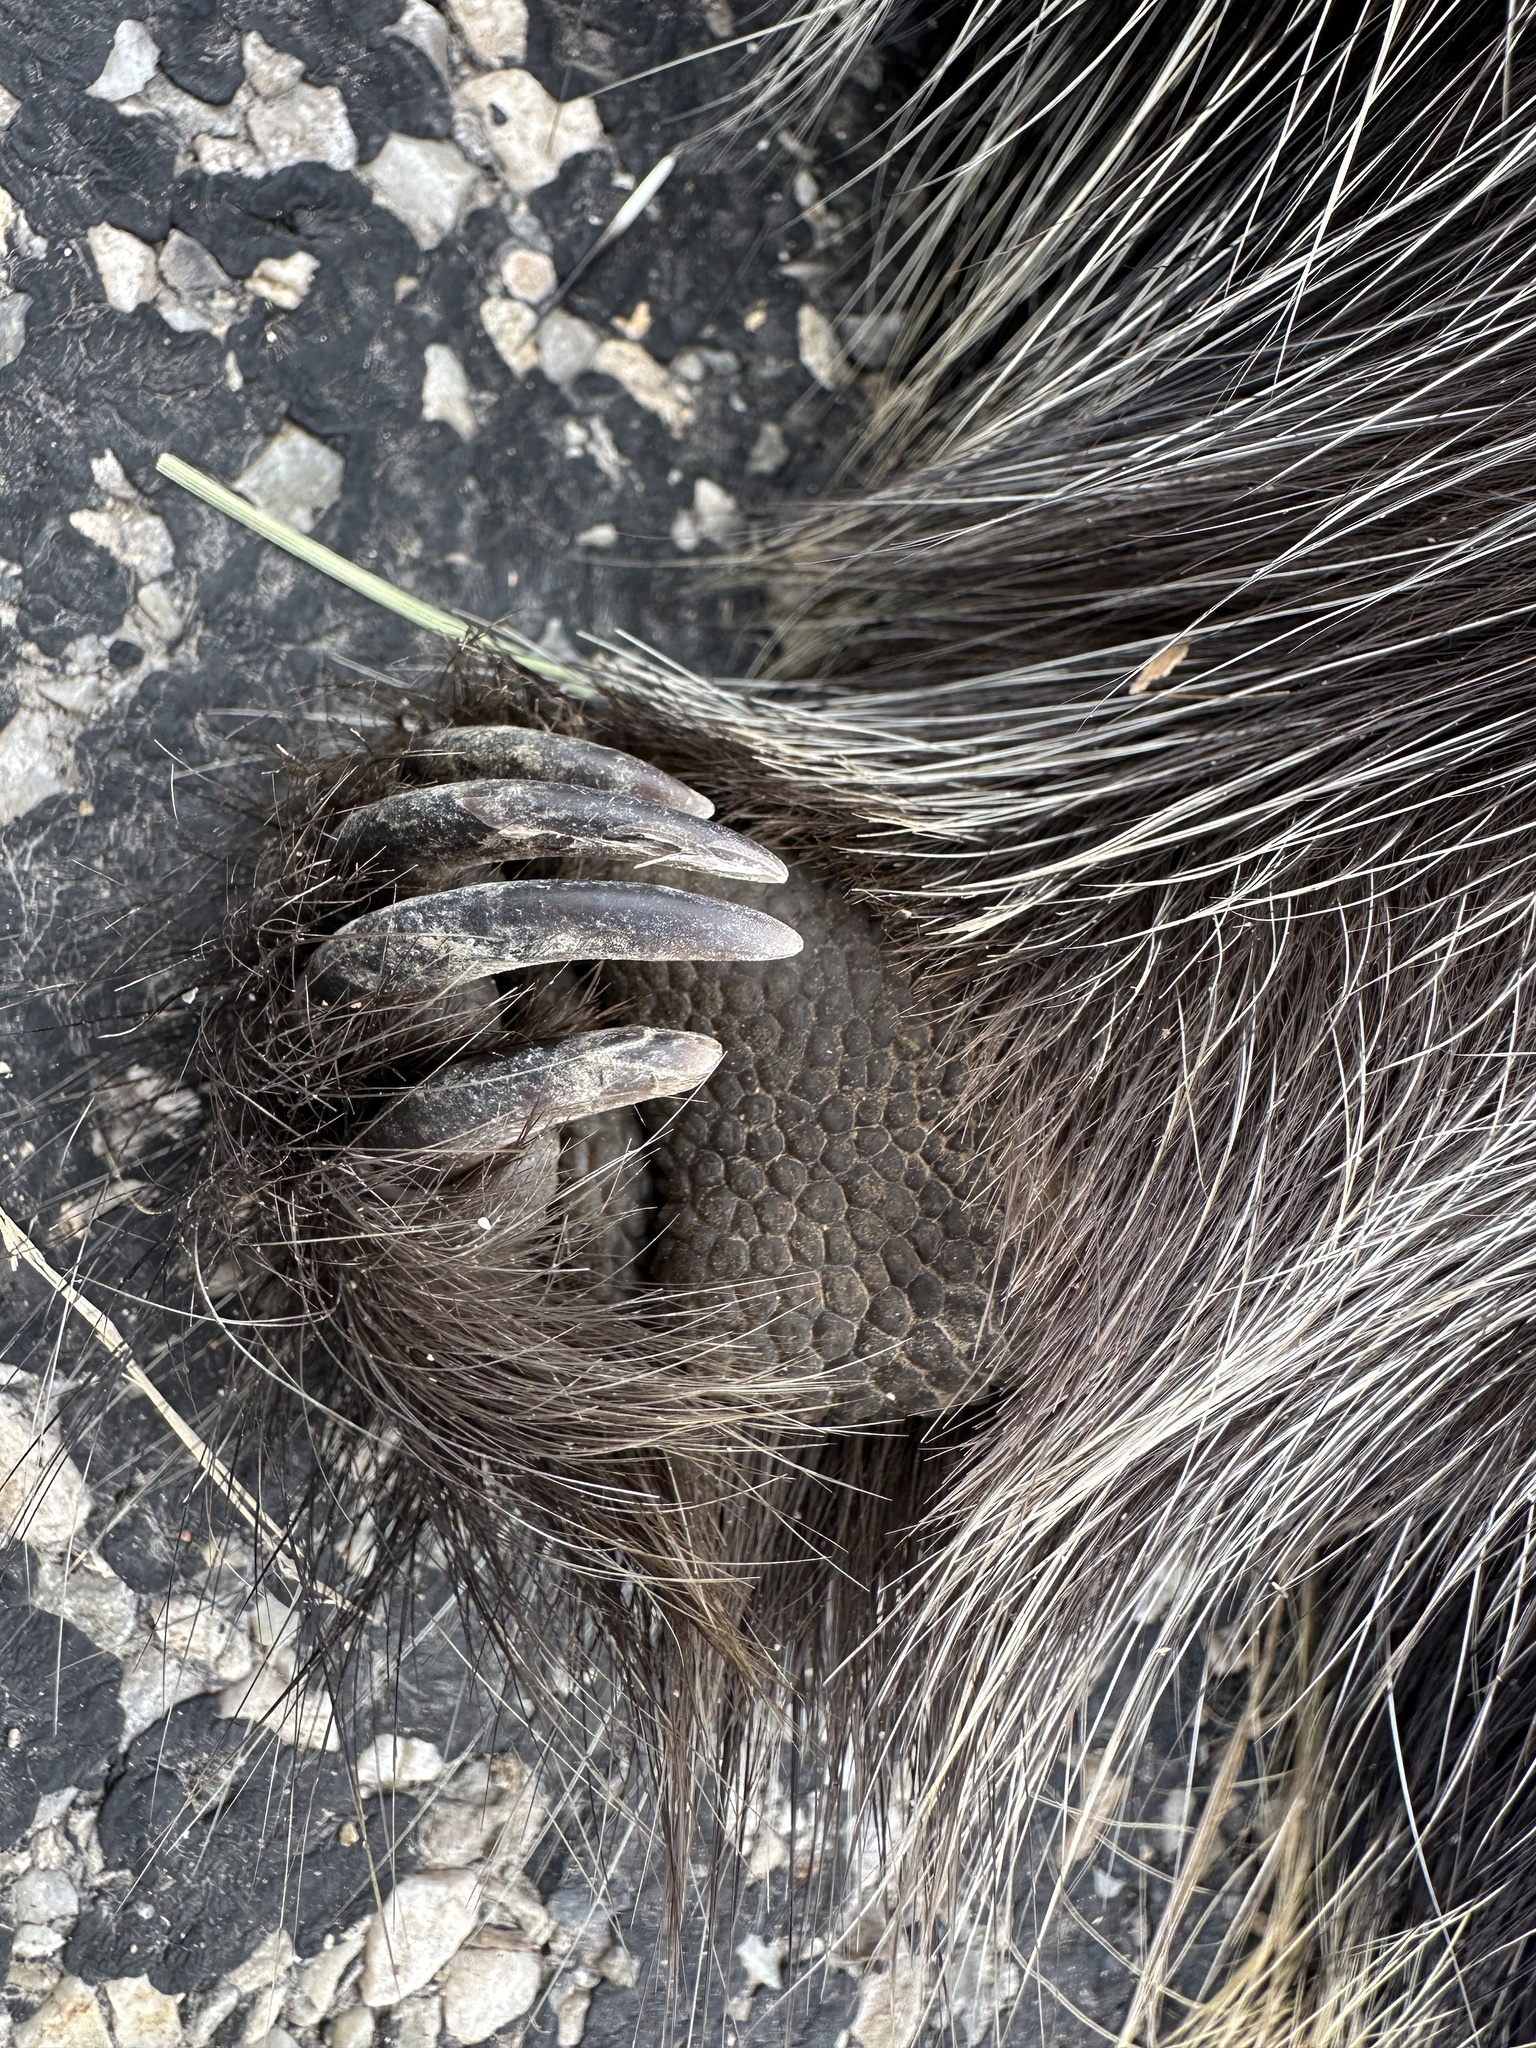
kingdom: Animalia
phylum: Chordata
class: Mammalia
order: Rodentia
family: Erethizontidae
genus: Erethizon
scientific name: Erethizon dorsatus
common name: North american porcupine
